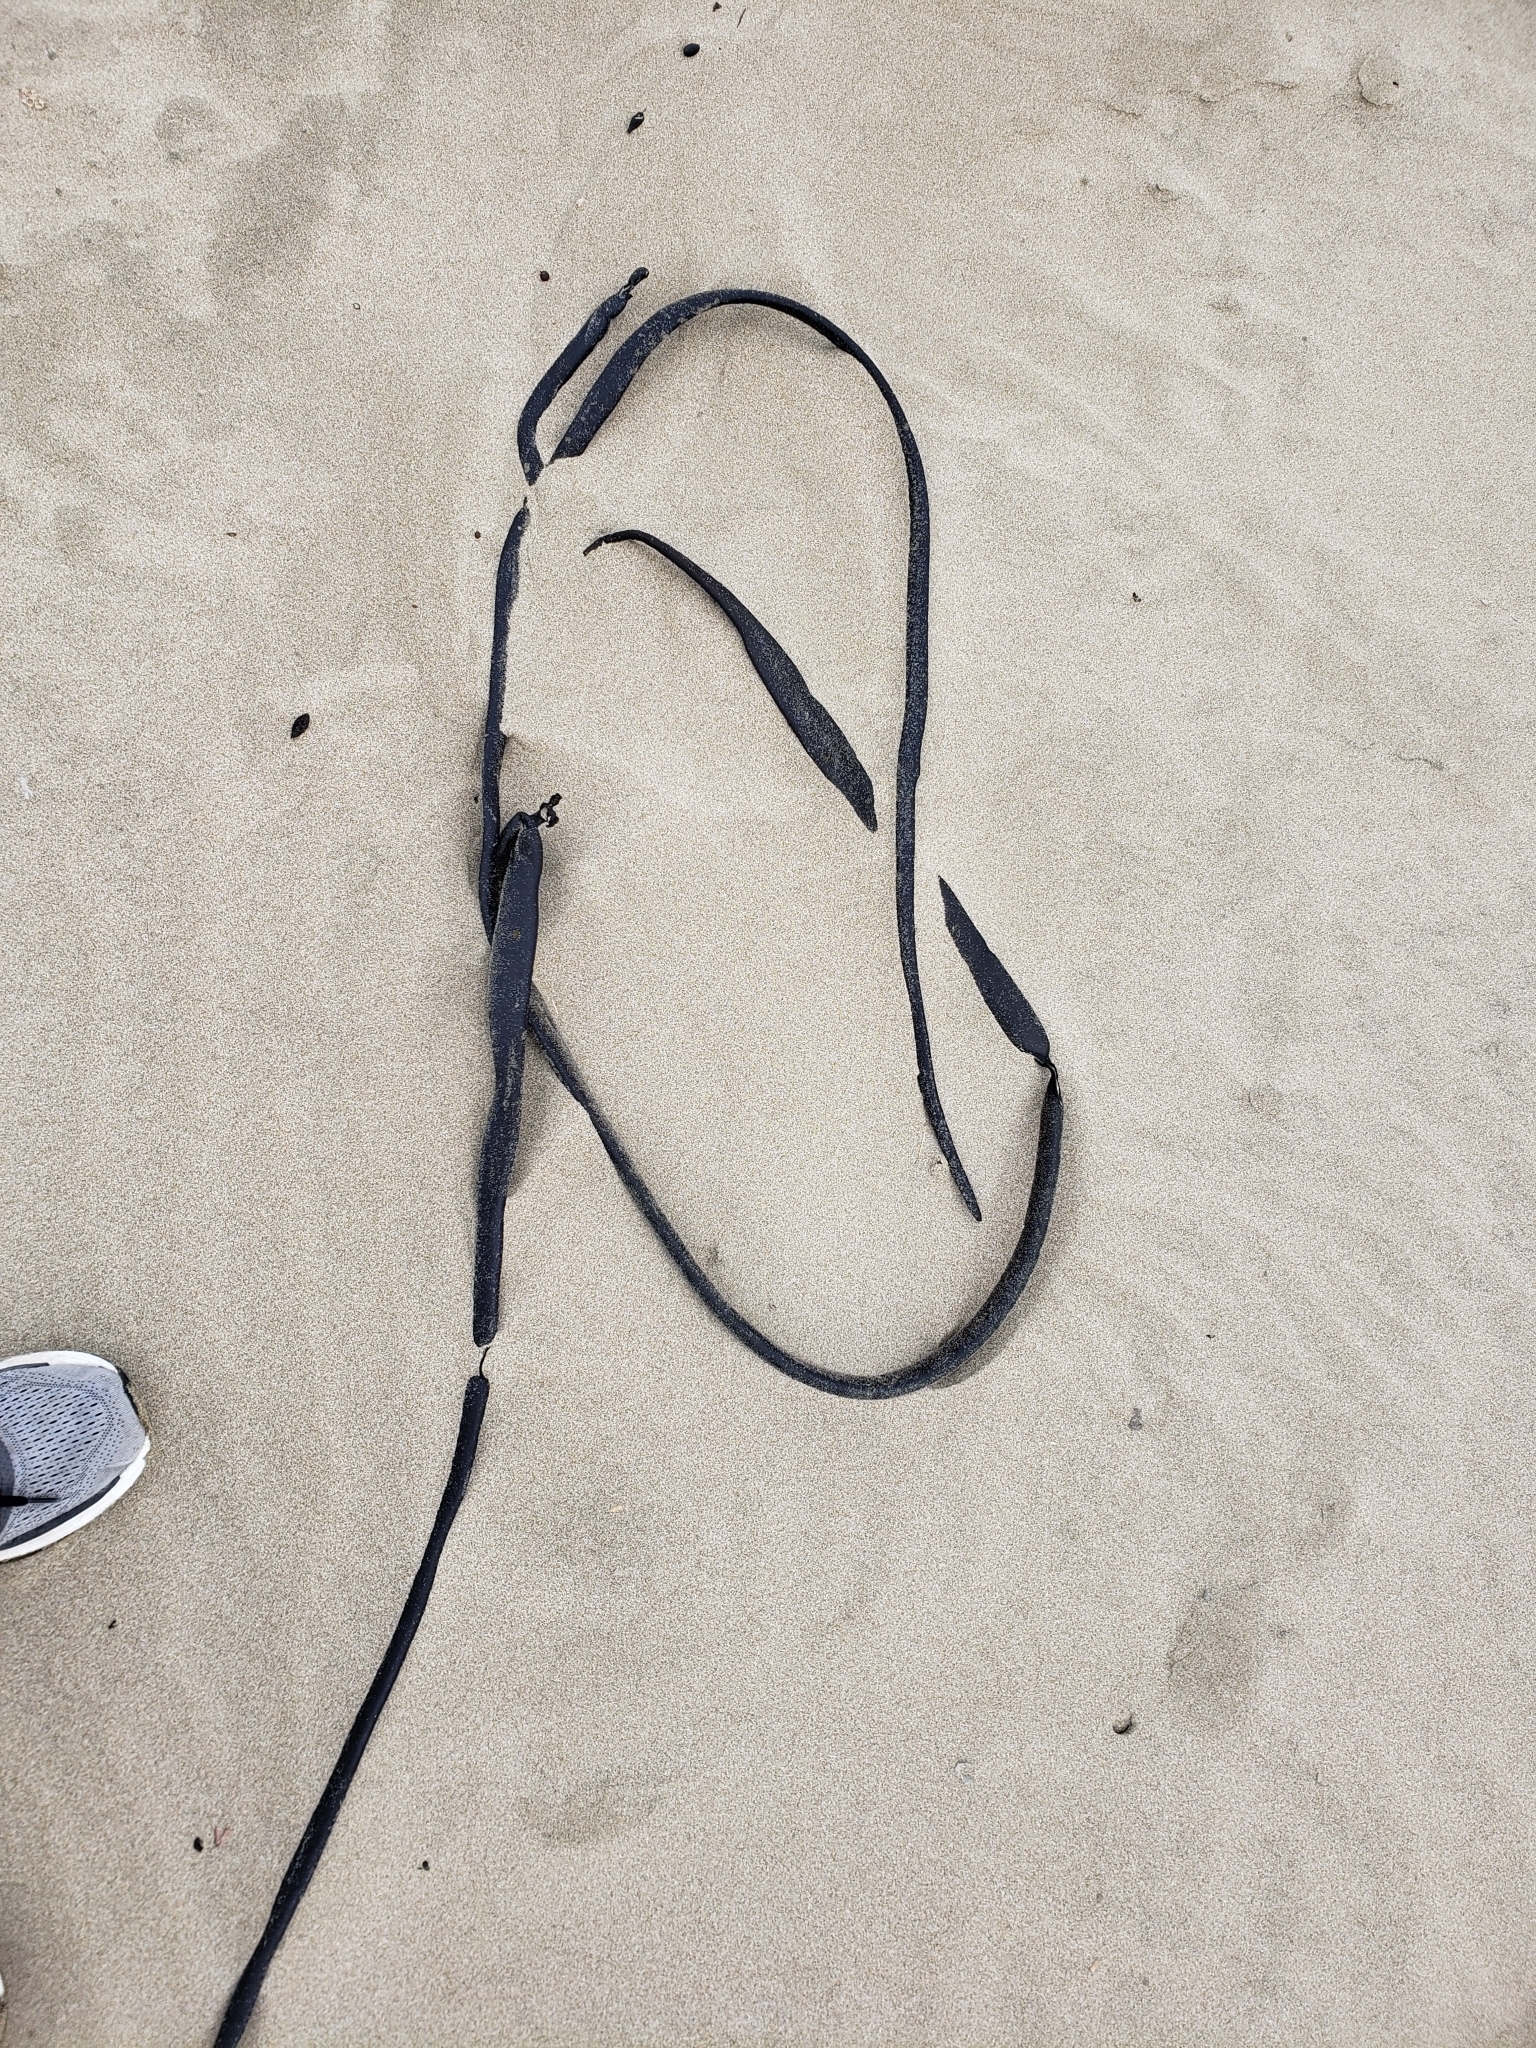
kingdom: Chromista
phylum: Ochrophyta
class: Phaeophyceae
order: Fucales
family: Durvillaeaceae
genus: Durvillaea
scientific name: Durvillaea antarctica
